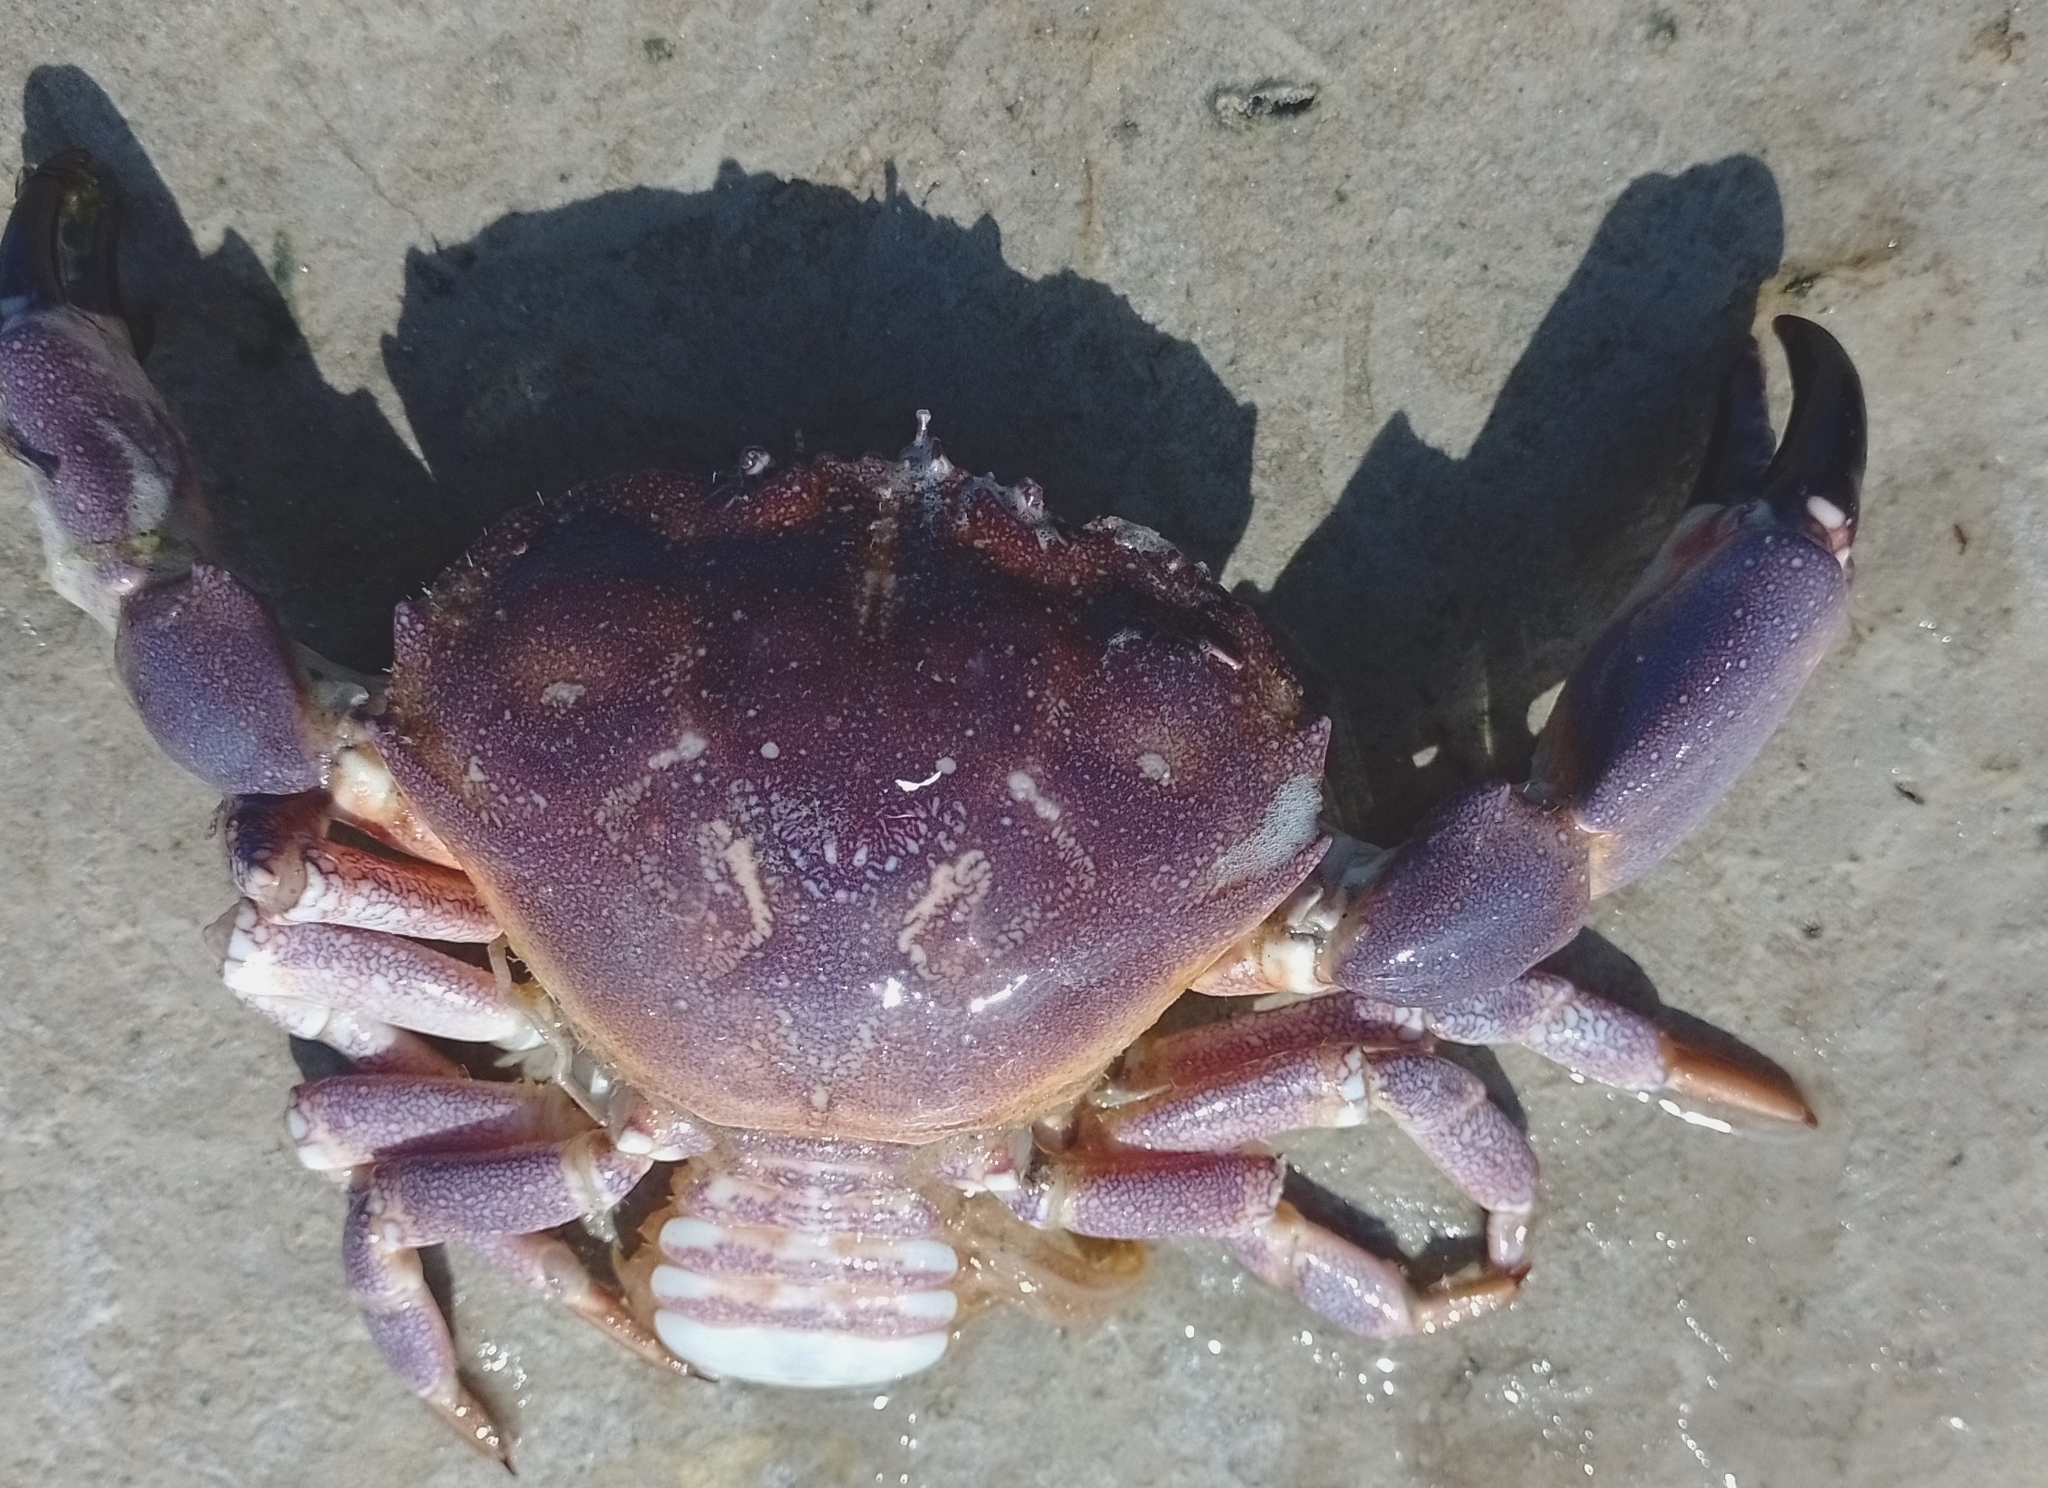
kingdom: Animalia
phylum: Arthropoda
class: Malacostraca
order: Decapoda
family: Platyxanthidae
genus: Danielethus
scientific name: Danielethus crenulatus
